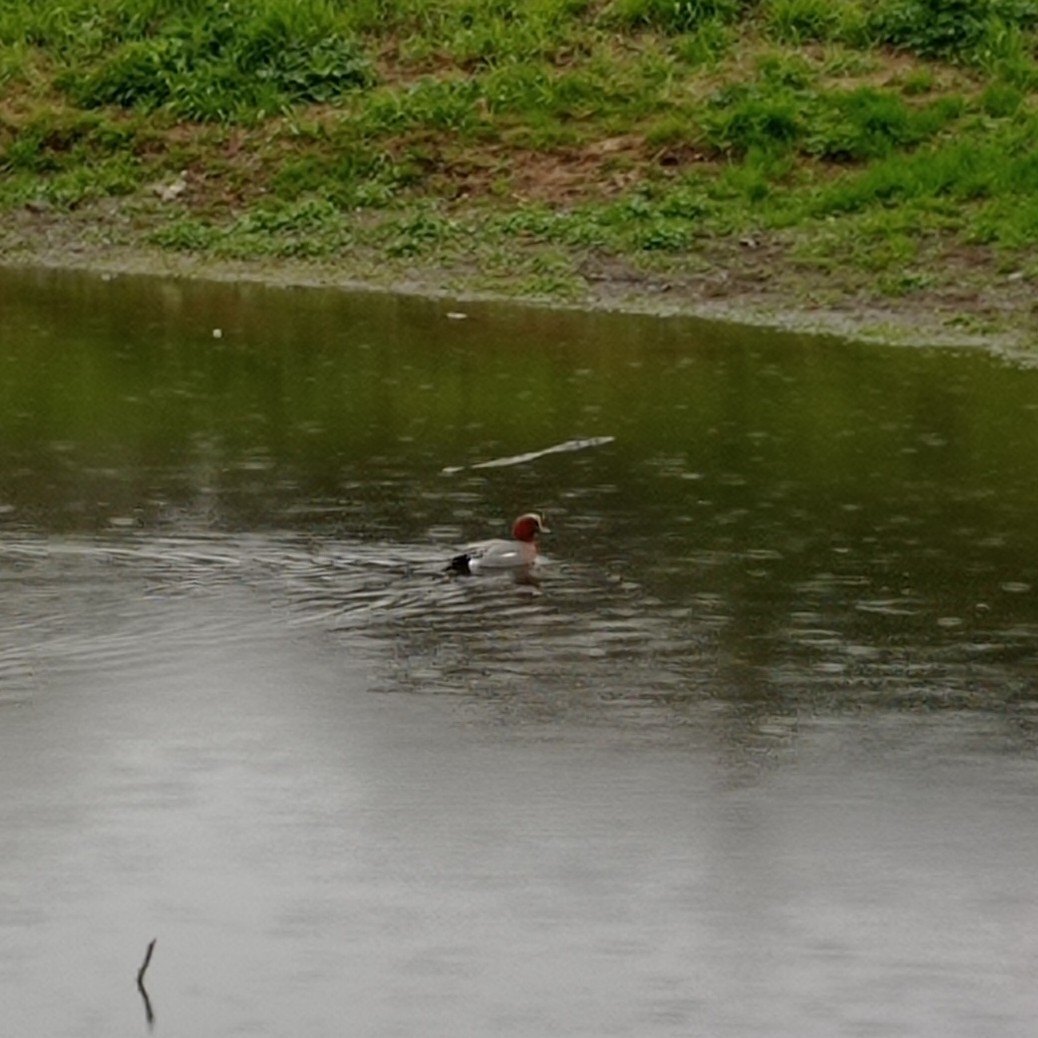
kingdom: Animalia
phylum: Chordata
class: Aves
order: Anseriformes
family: Anatidae
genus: Mareca
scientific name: Mareca penelope
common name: Eurasian wigeon
